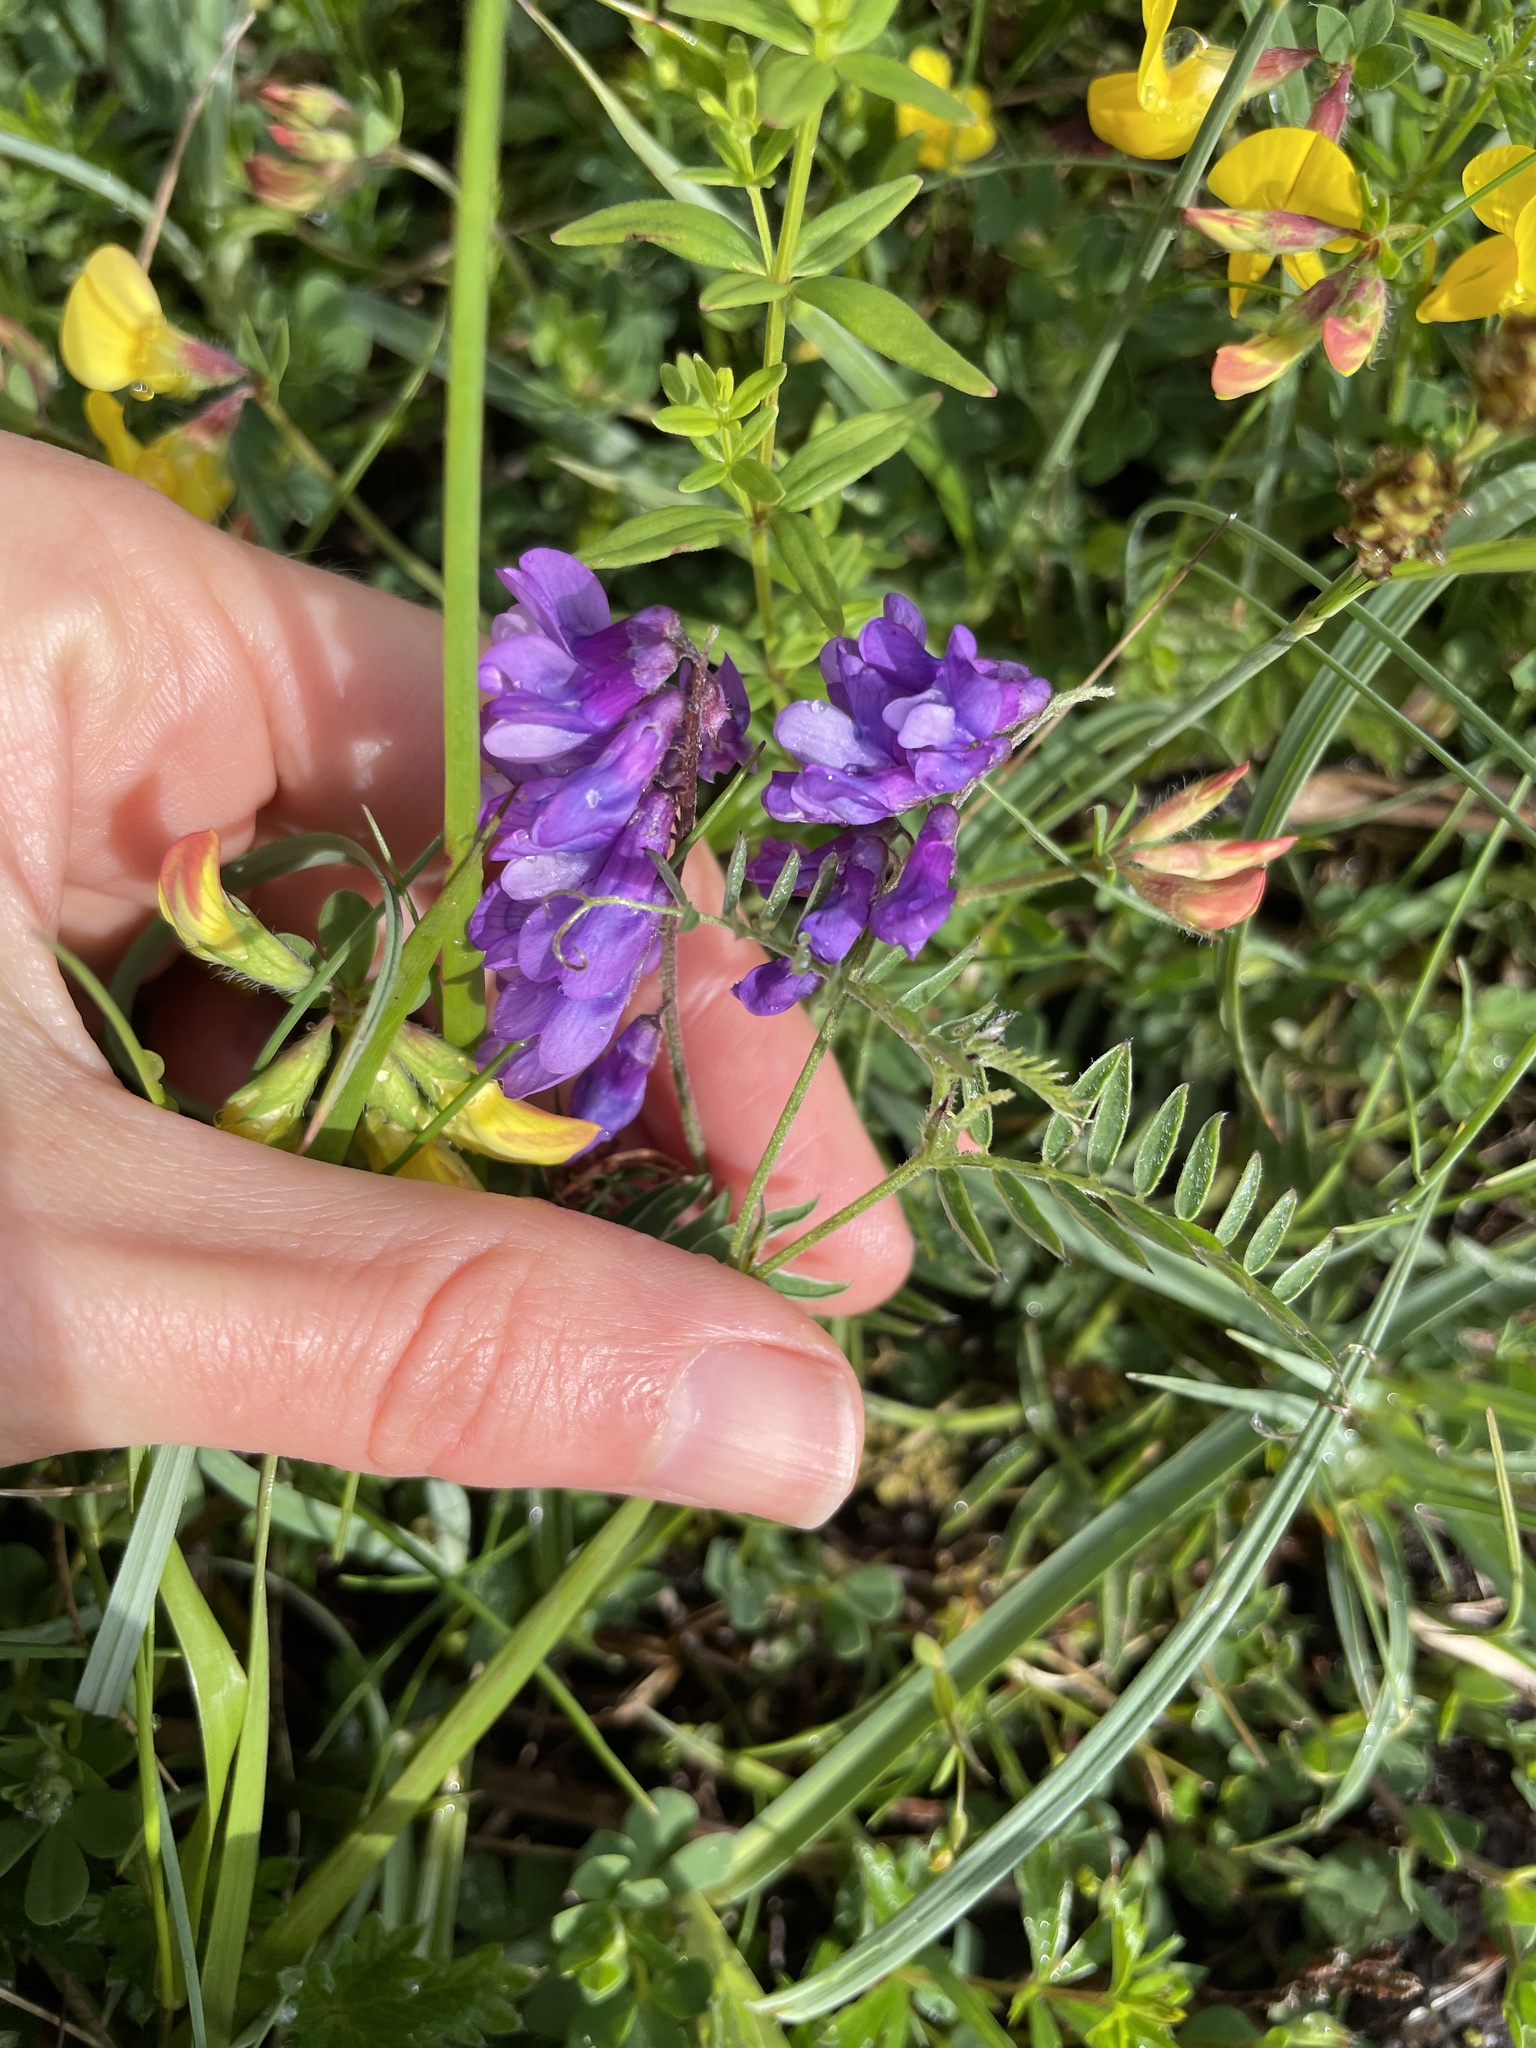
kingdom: Plantae
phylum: Tracheophyta
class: Magnoliopsida
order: Fabales
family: Fabaceae
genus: Vicia
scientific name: Vicia cracca
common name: Bird vetch
